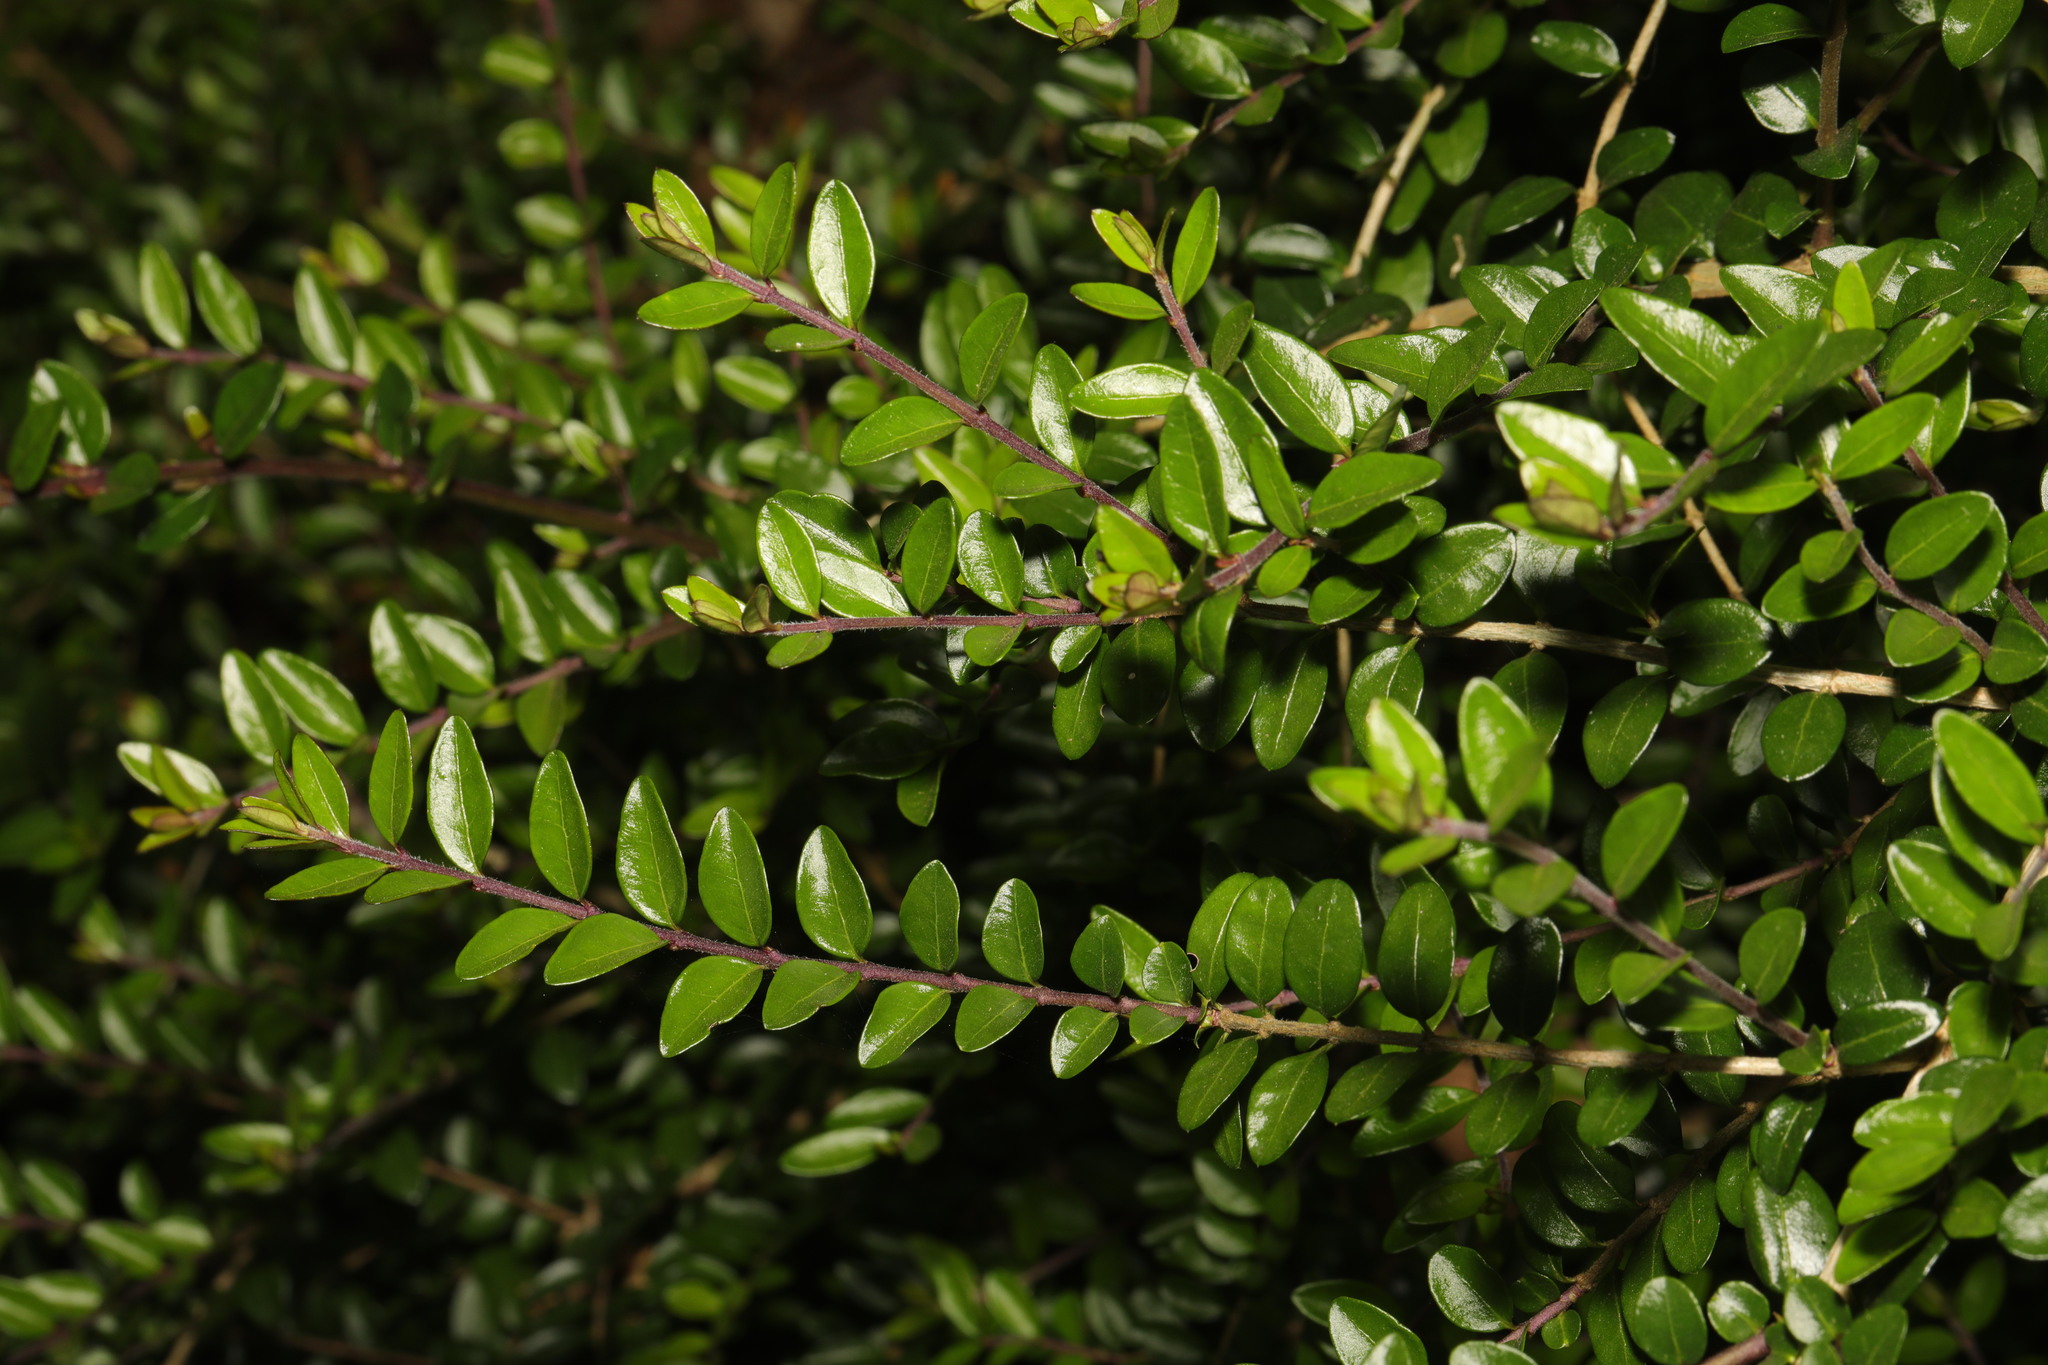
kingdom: Plantae
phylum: Tracheophyta
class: Magnoliopsida
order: Dipsacales
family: Caprifoliaceae
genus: Lonicera
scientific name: Lonicera pileata
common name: Box-leaved honeysuckle
